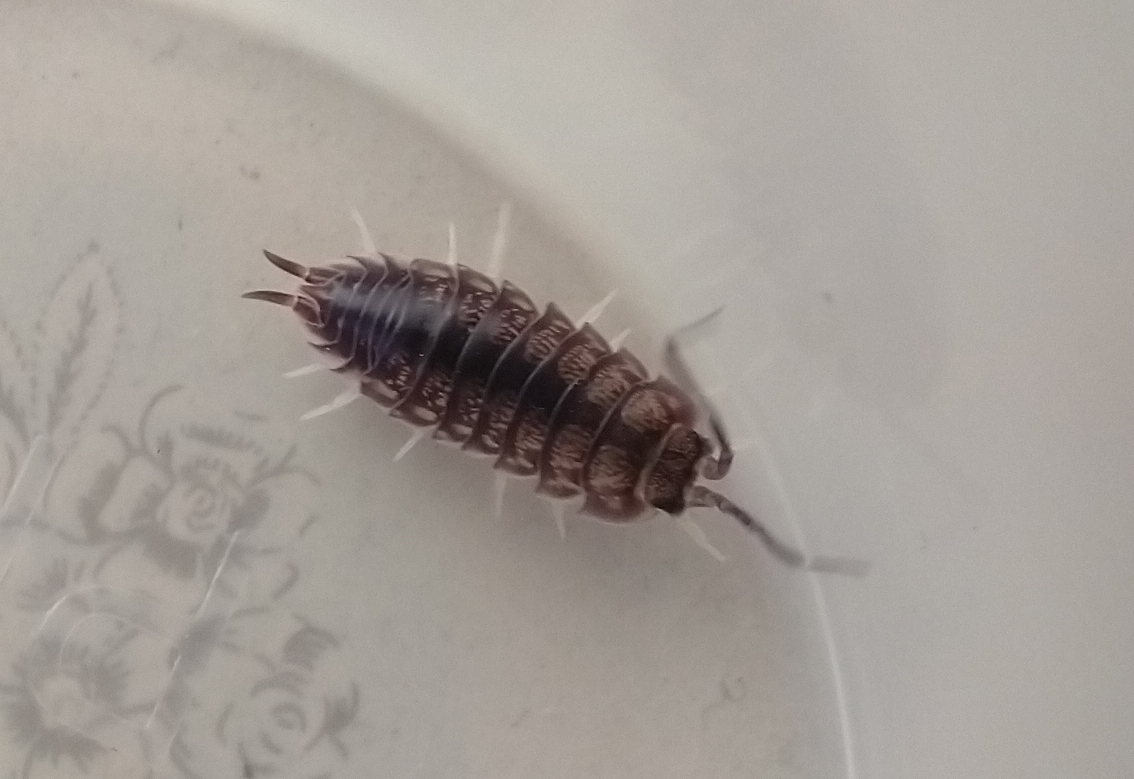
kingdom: Animalia
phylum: Arthropoda
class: Malacostraca
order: Isopoda
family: Cylisticidae
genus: Cylisticus
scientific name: Cylisticus convexus
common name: Curly woodlouse
